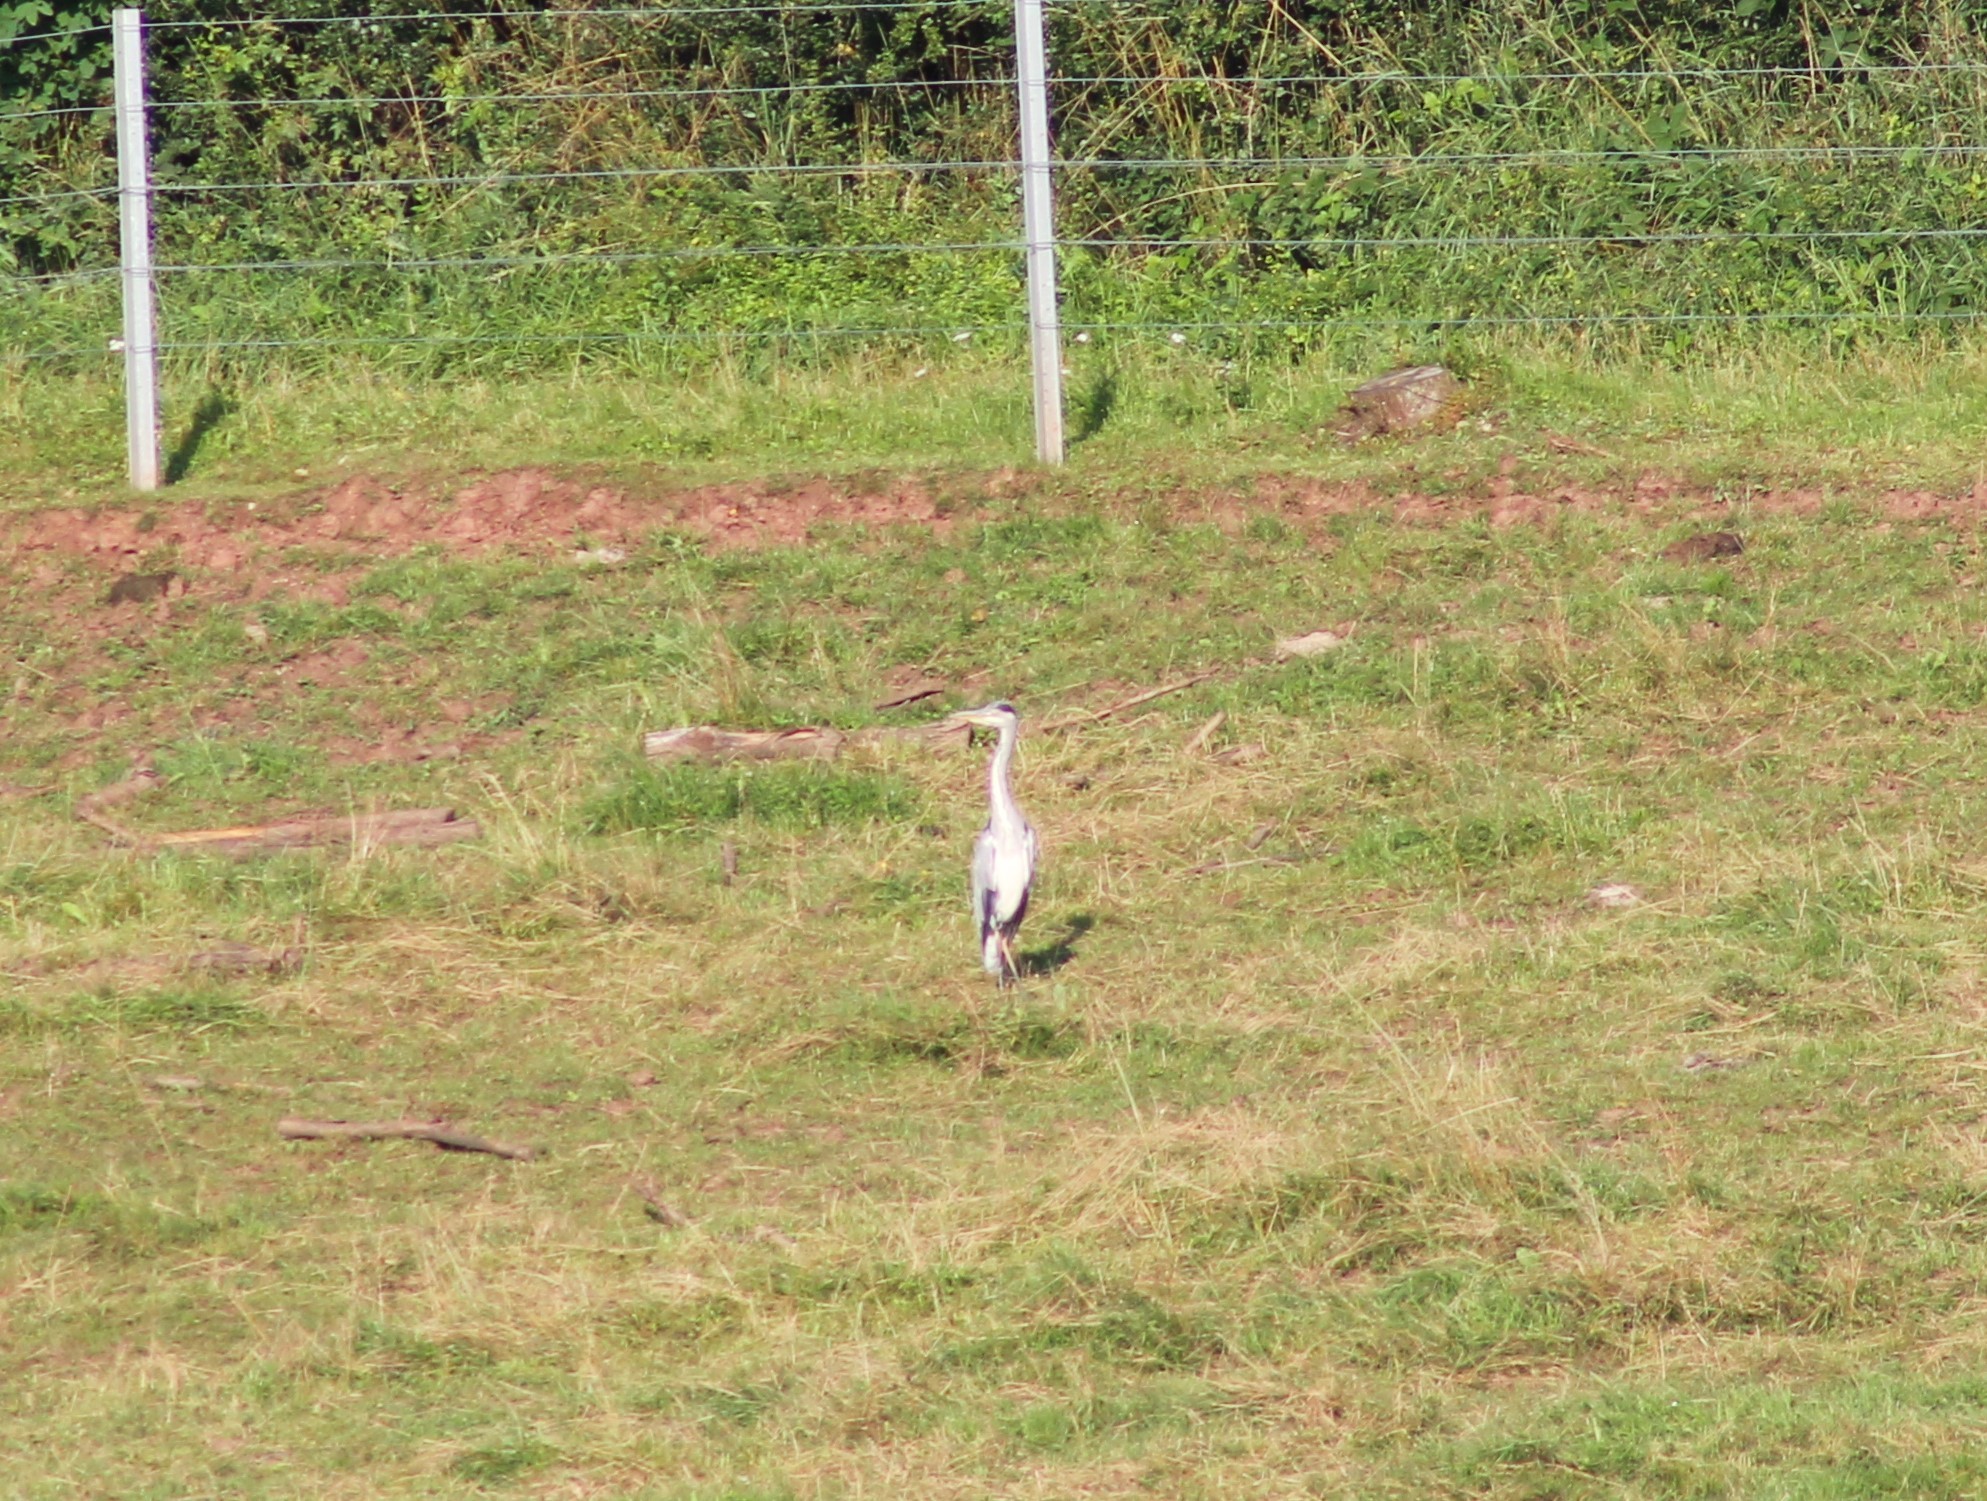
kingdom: Animalia
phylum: Chordata
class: Aves
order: Pelecaniformes
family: Ardeidae
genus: Ardea
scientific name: Ardea cinerea
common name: Grey heron
